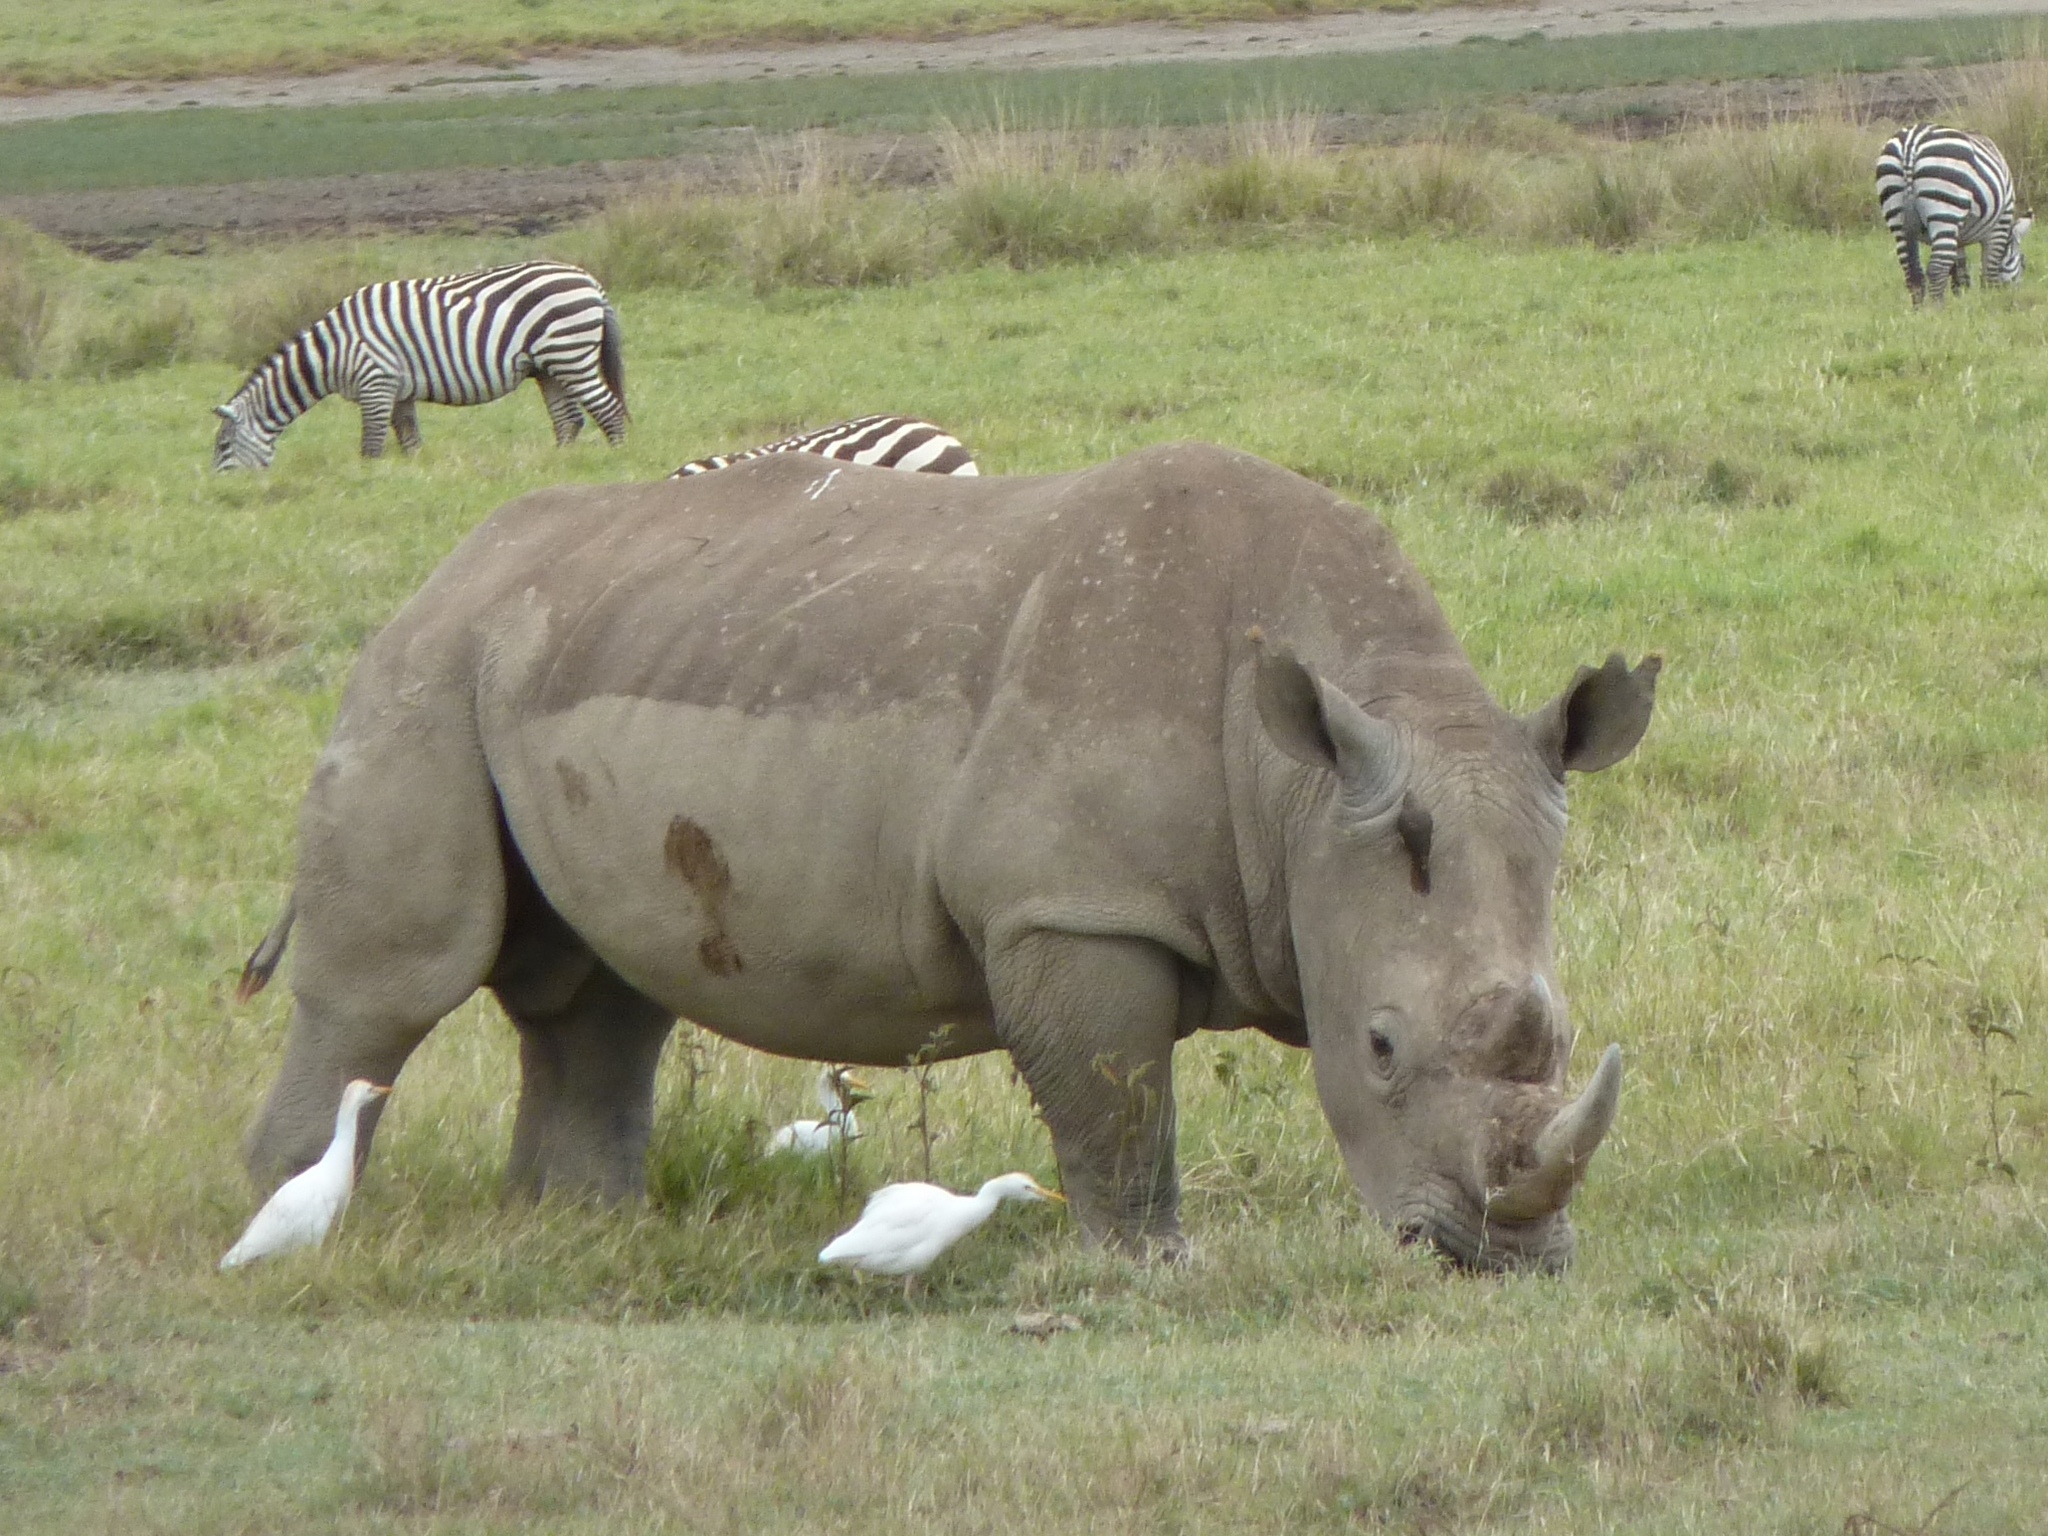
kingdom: Animalia
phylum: Chordata
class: Mammalia
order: Perissodactyla
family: Rhinocerotidae
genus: Ceratotherium
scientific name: Ceratotherium simum
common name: White rhinoceros
